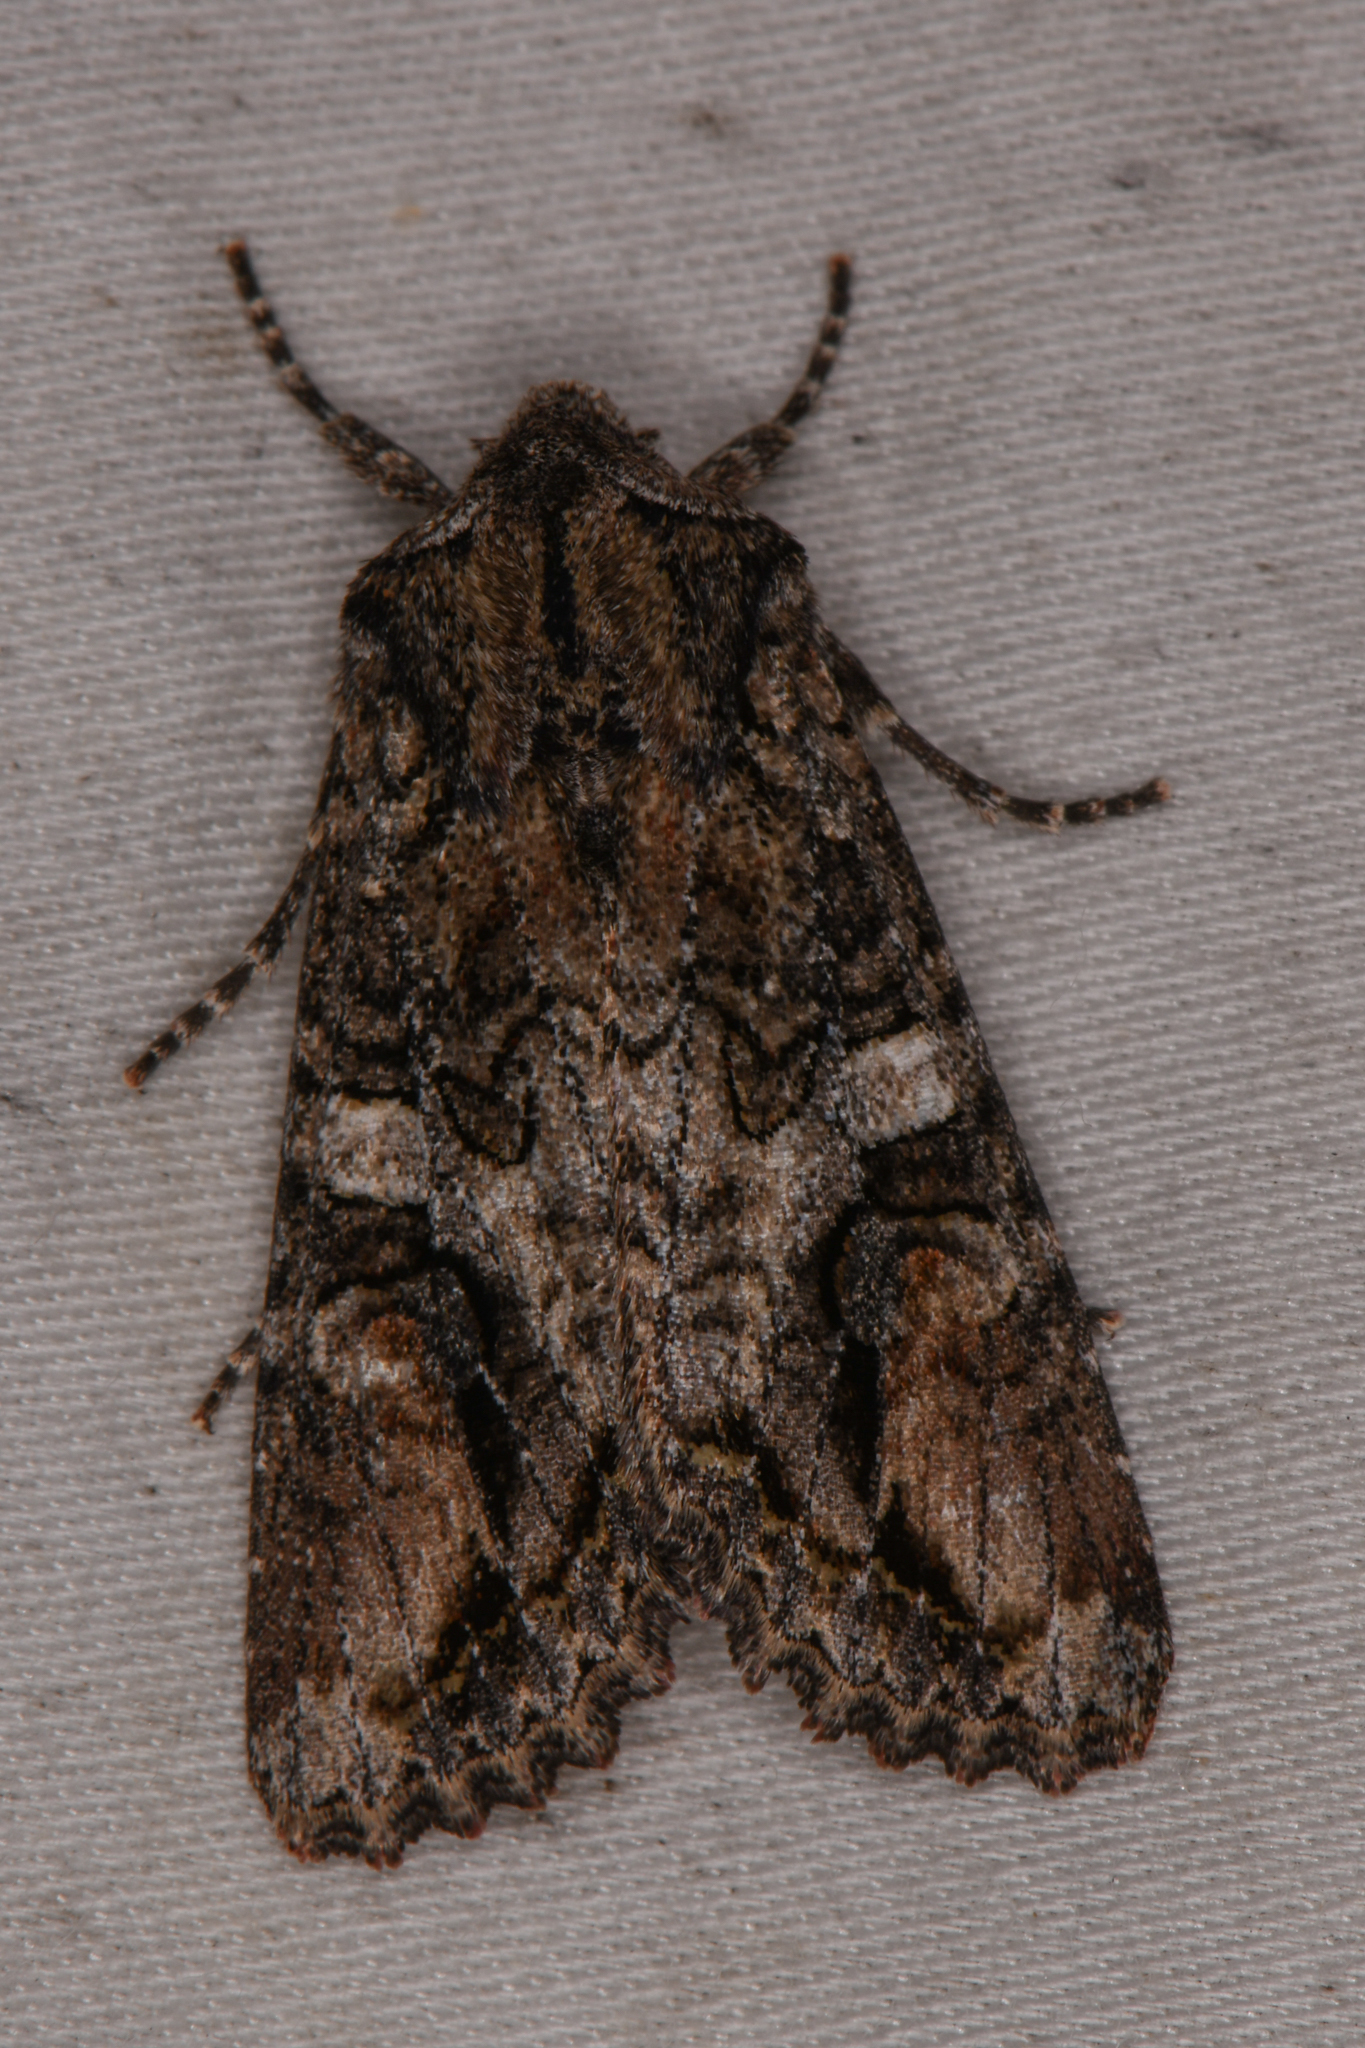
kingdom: Animalia
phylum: Arthropoda
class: Insecta
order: Lepidoptera
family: Noctuidae
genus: Egira
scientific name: Egira perlubens
